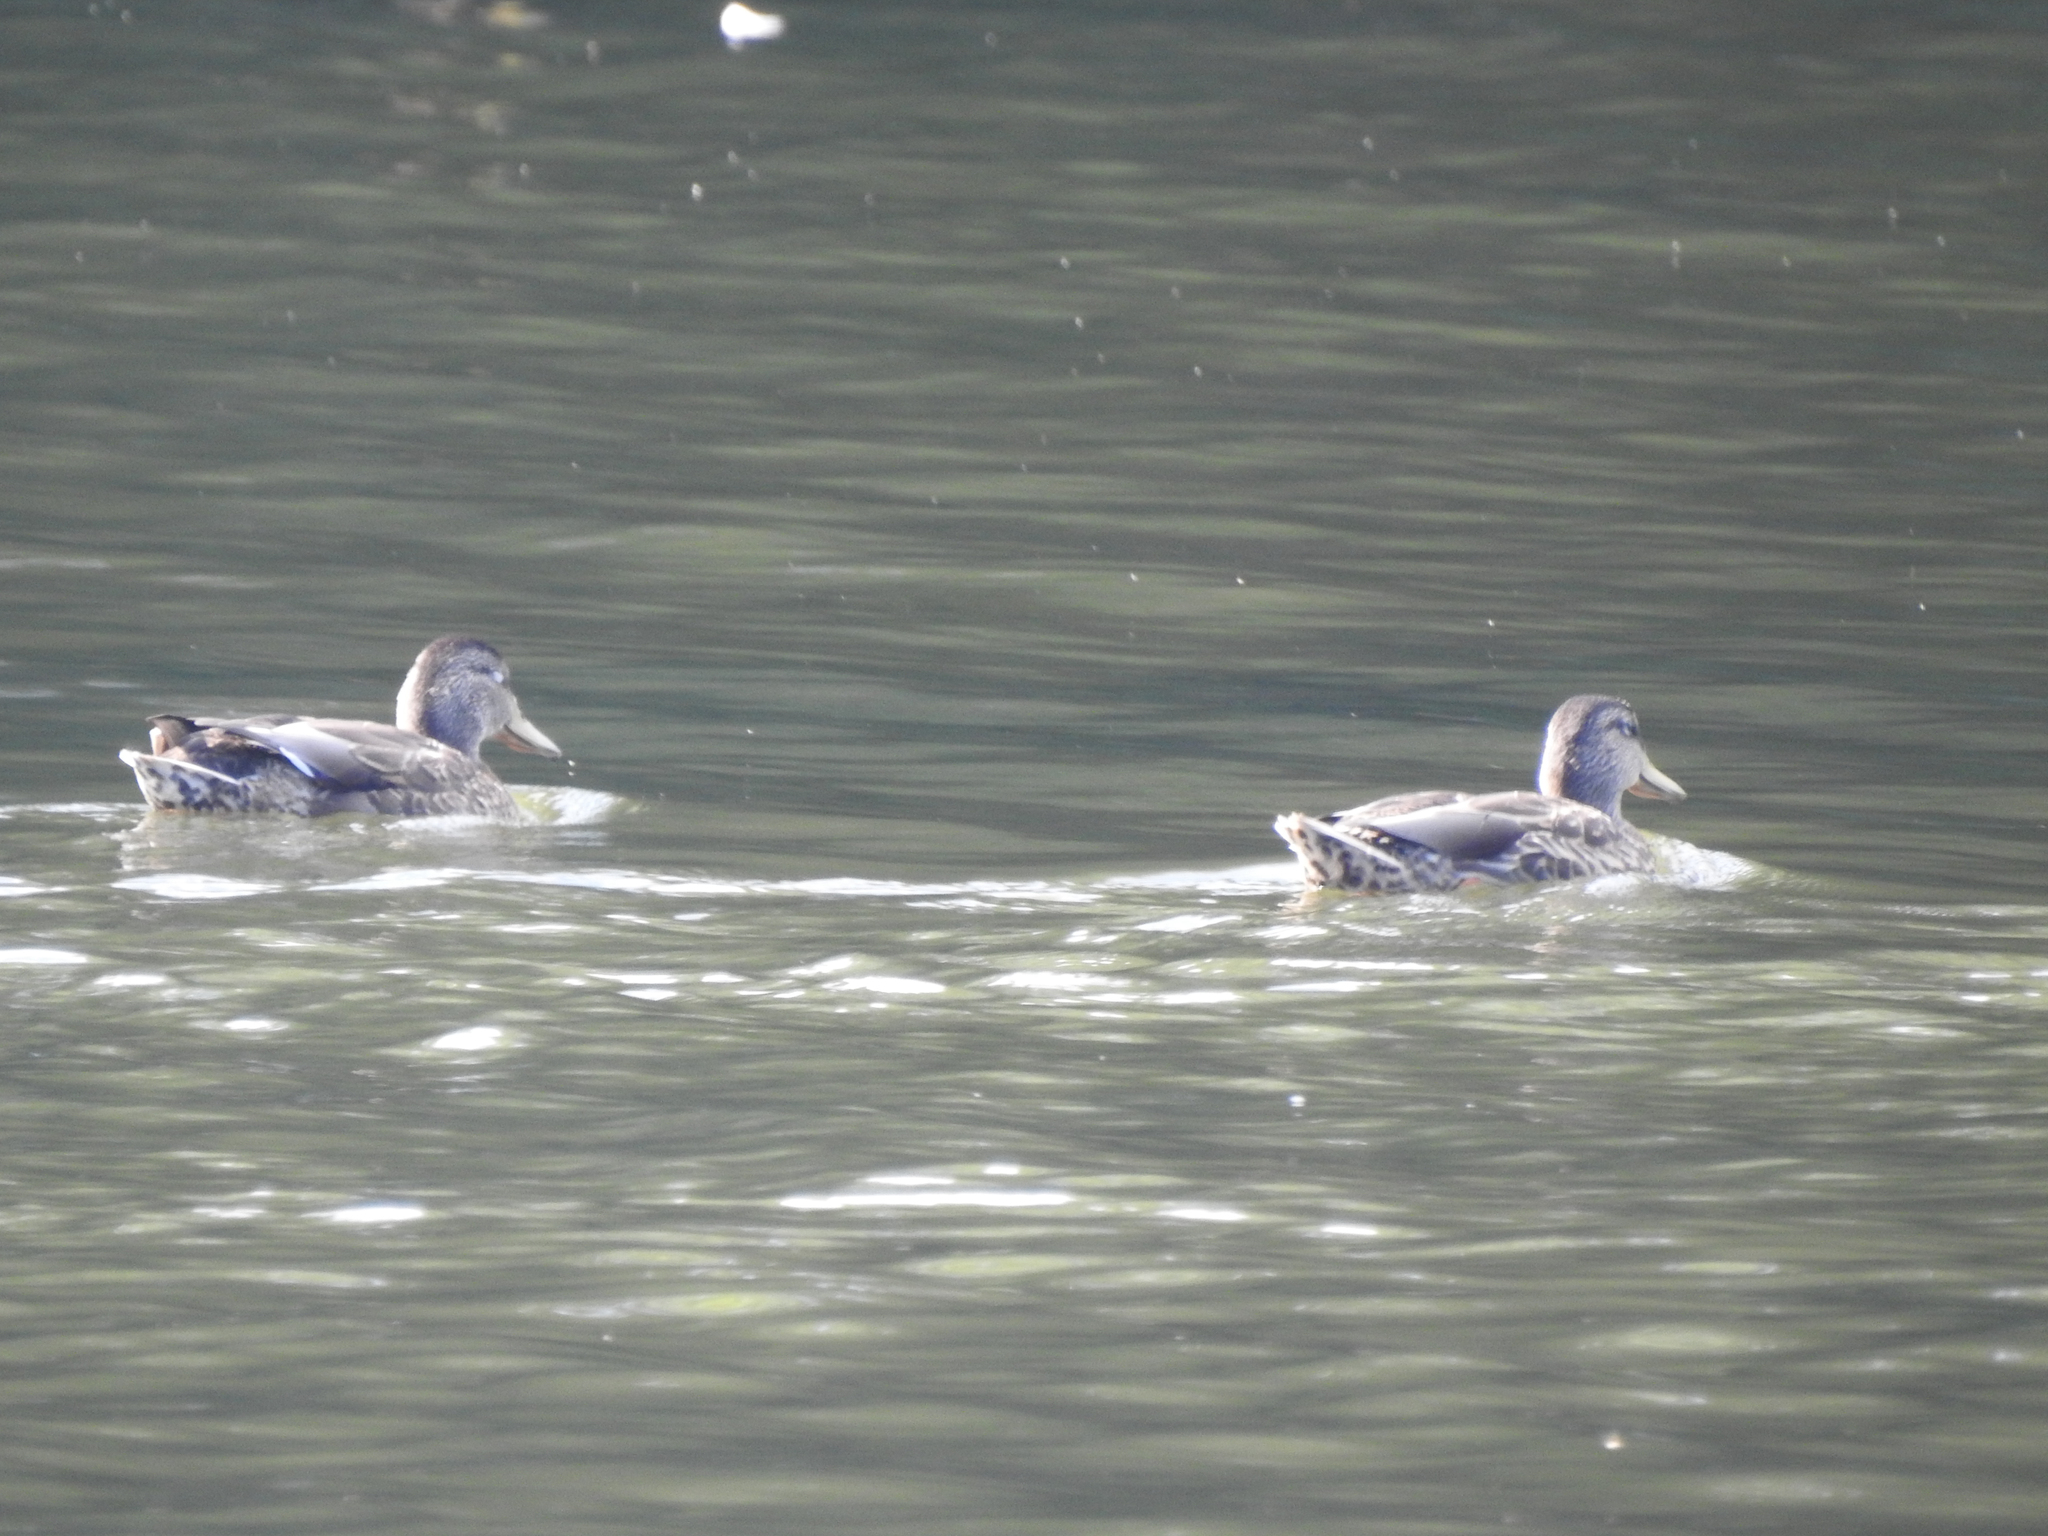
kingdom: Animalia
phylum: Chordata
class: Aves
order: Anseriformes
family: Anatidae
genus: Anas
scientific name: Anas platyrhynchos
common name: Mallard
